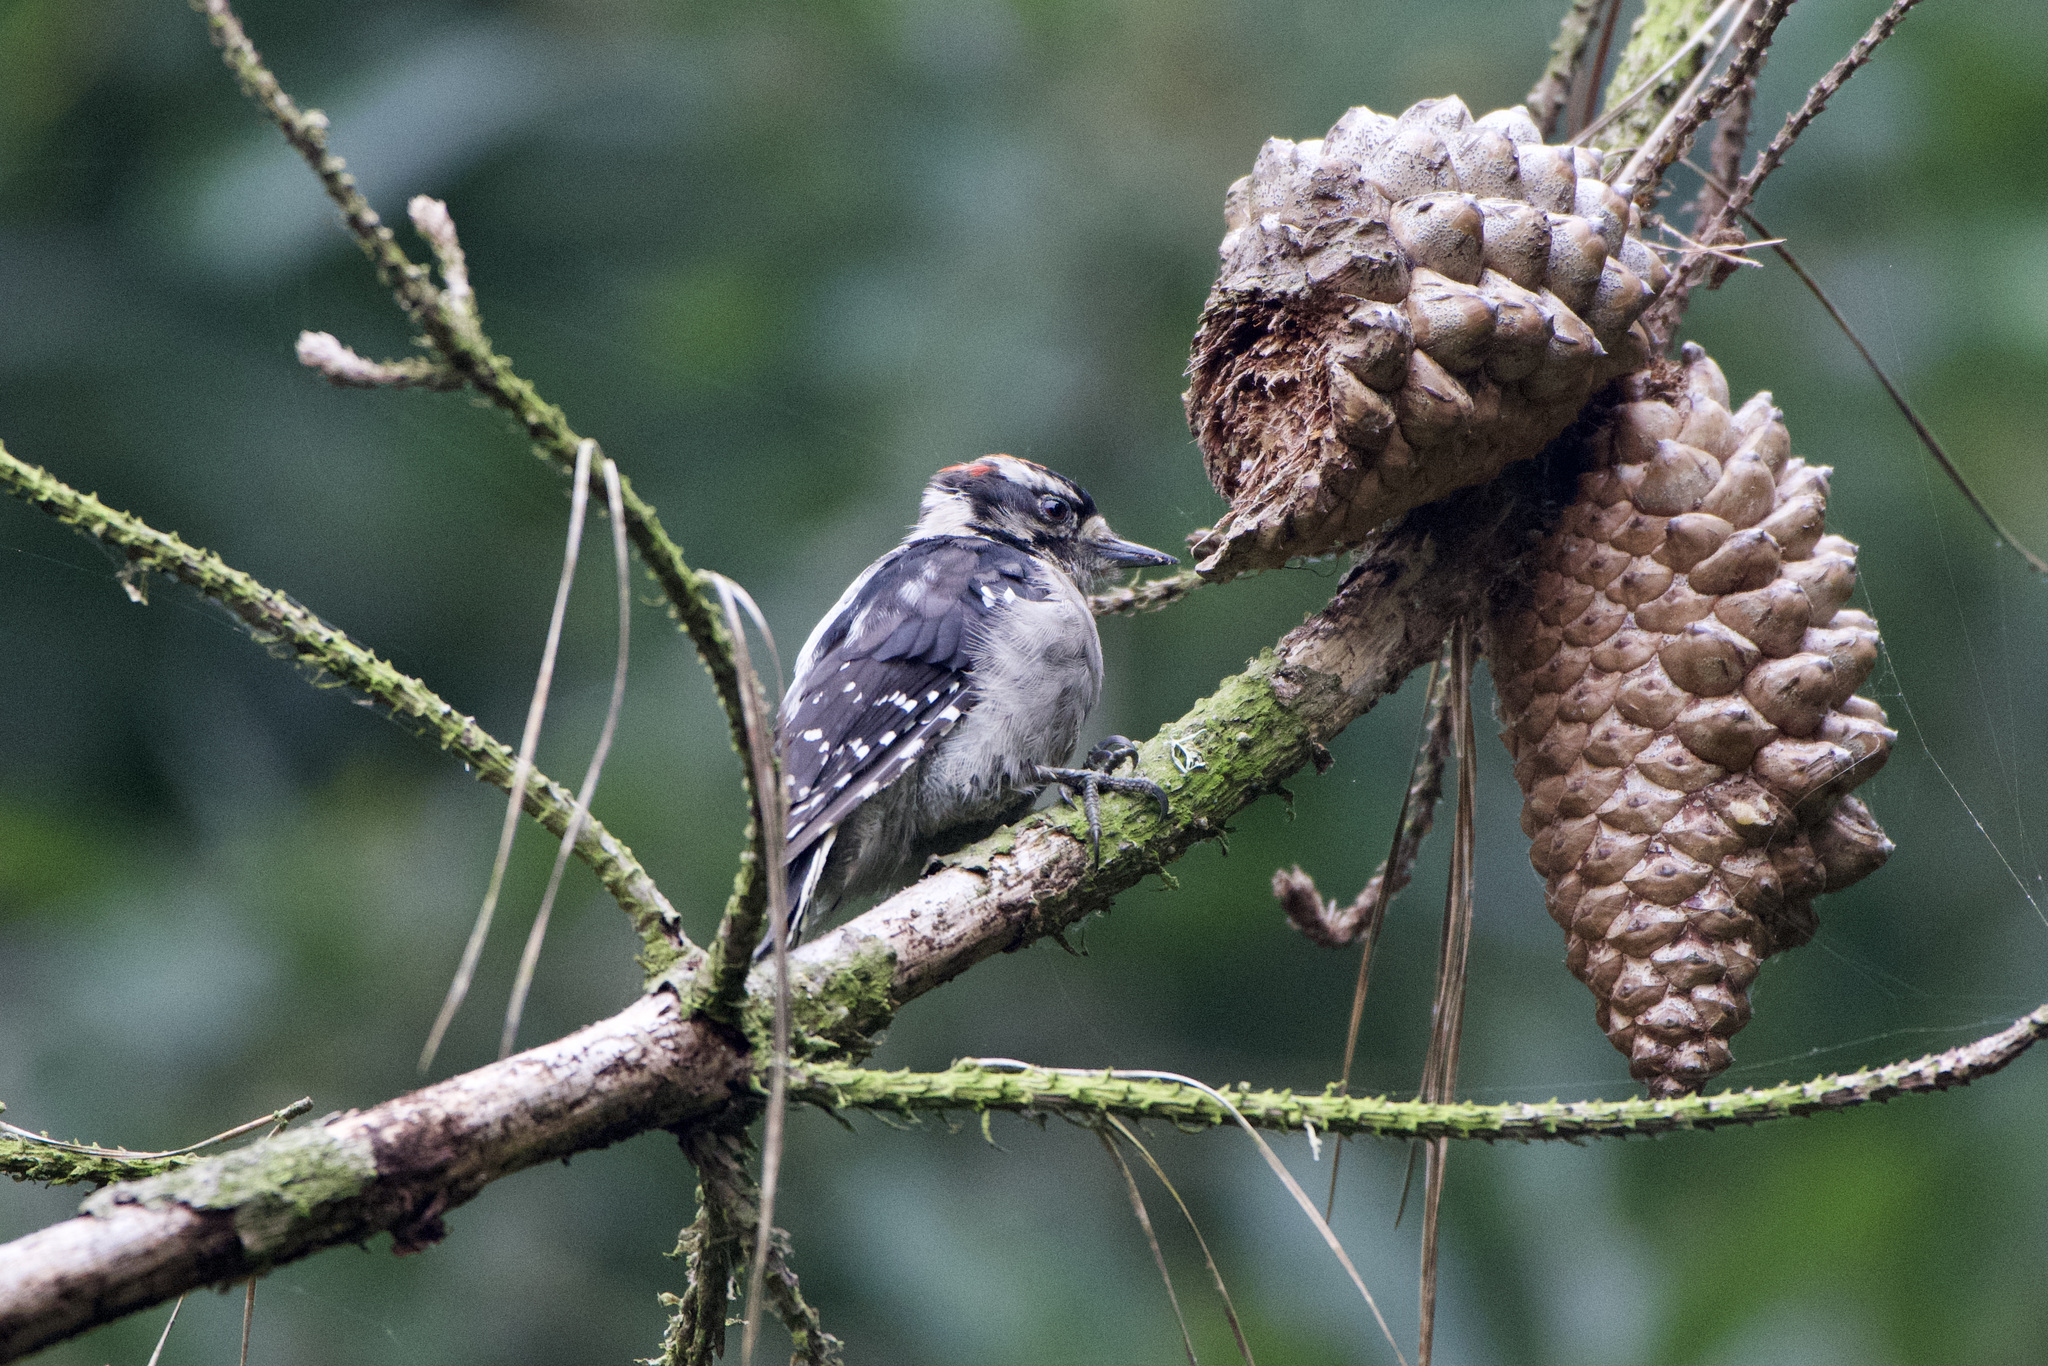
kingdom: Animalia
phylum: Chordata
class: Aves
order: Piciformes
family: Picidae
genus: Dryobates
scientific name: Dryobates pubescens
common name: Downy woodpecker
